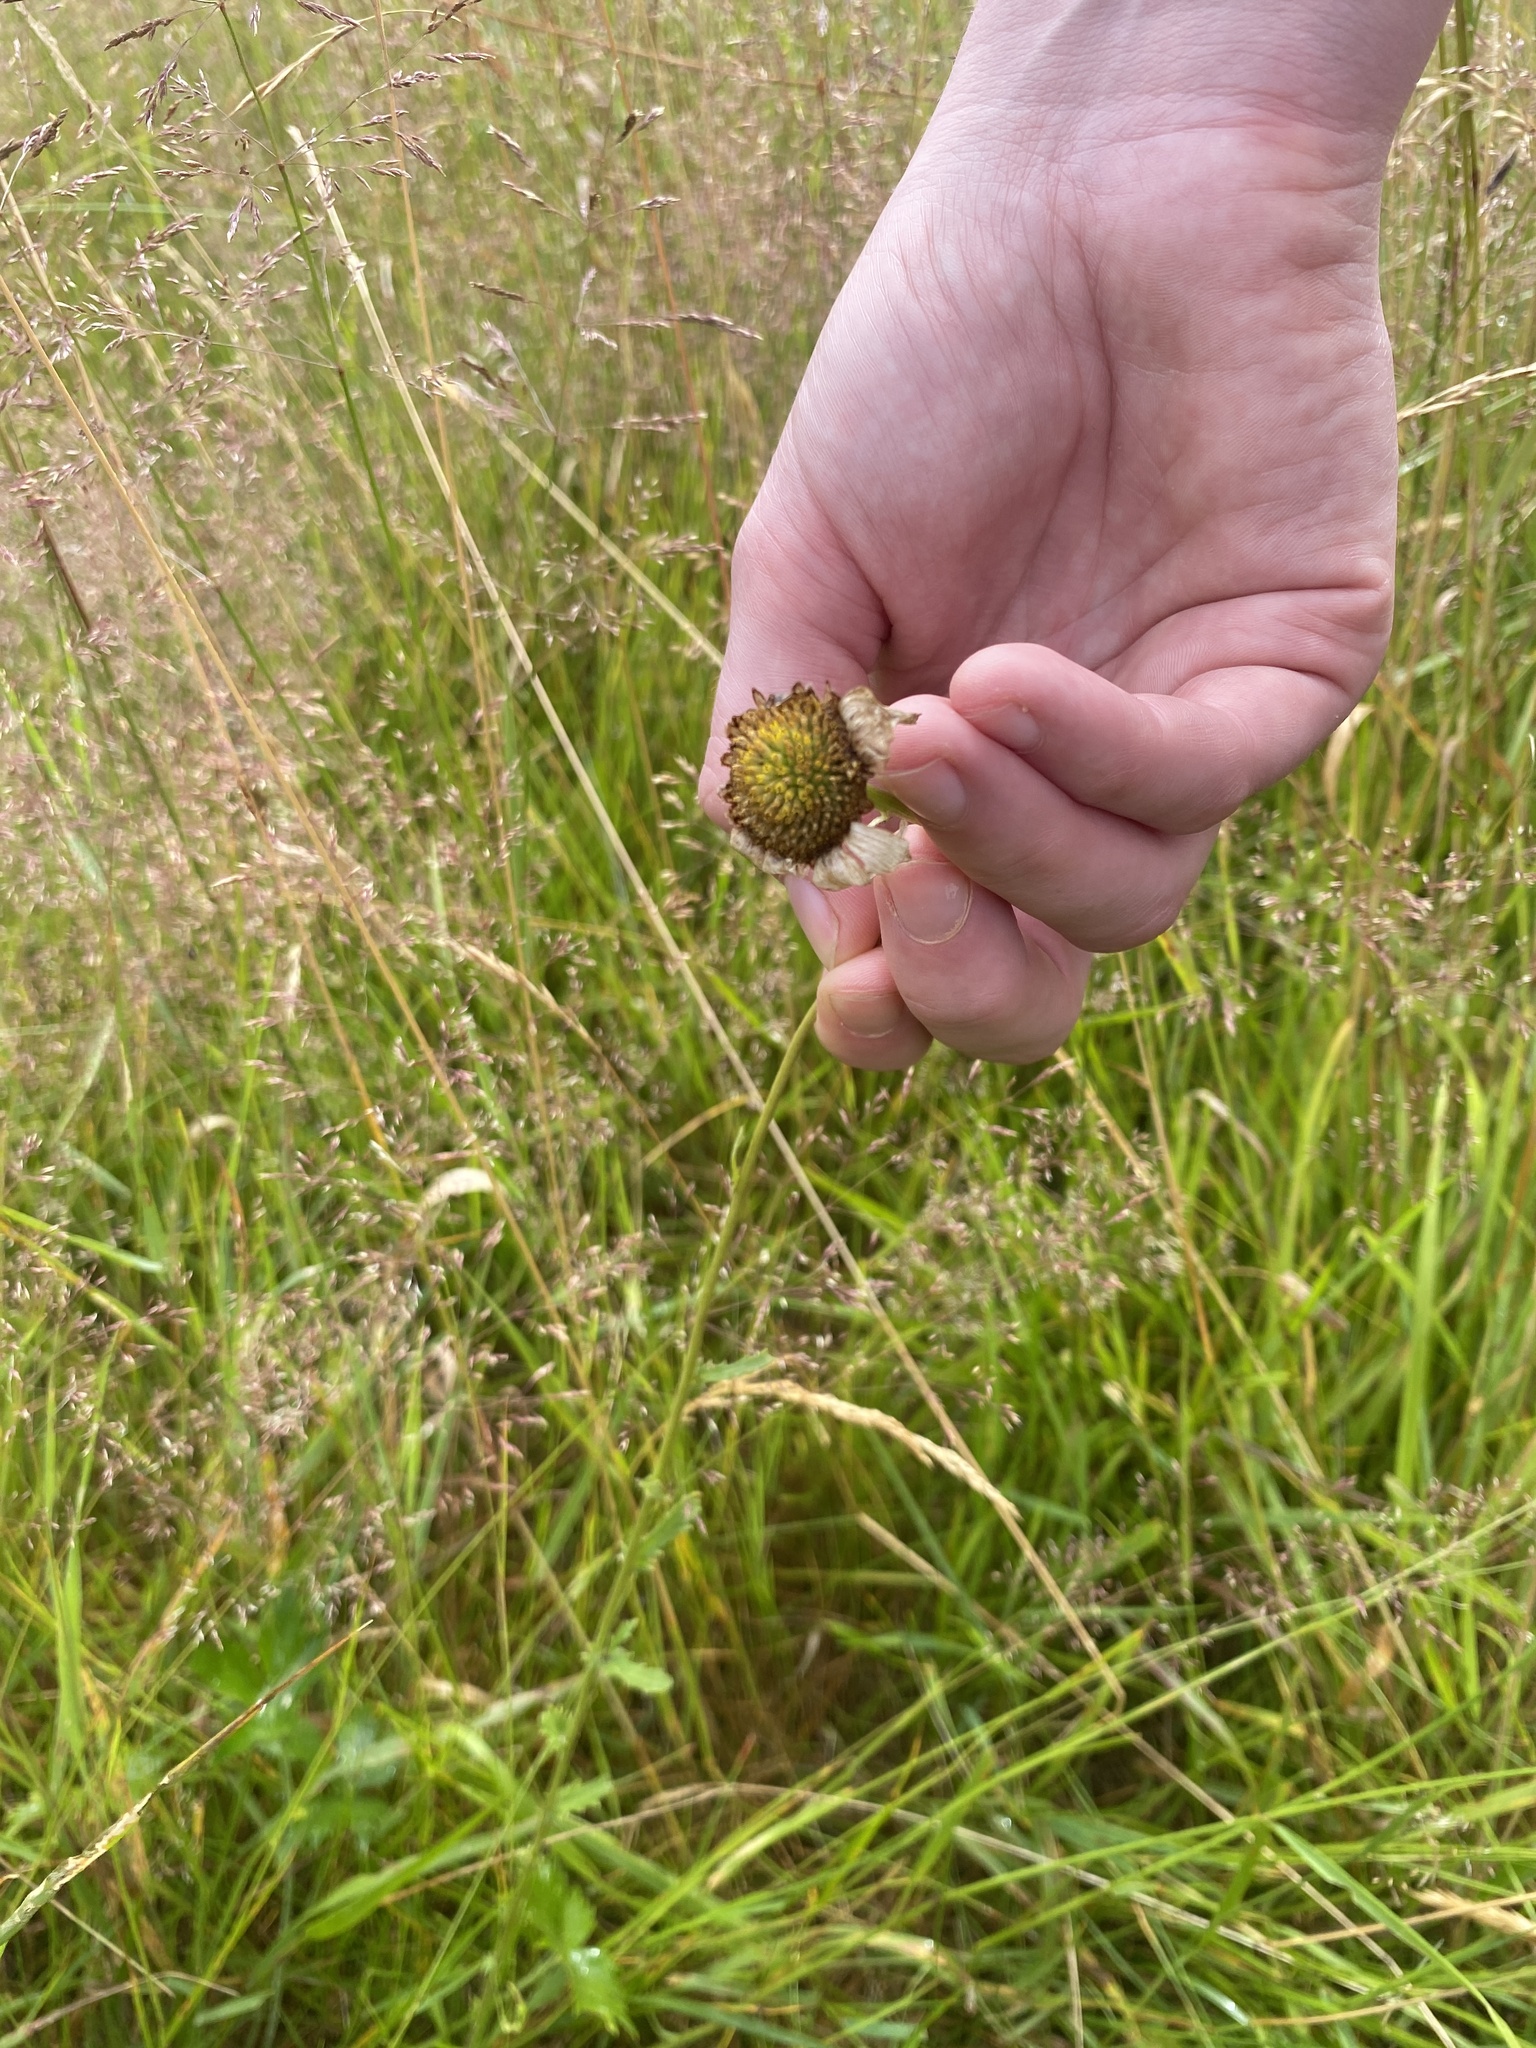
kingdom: Plantae
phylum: Tracheophyta
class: Magnoliopsida
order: Asterales
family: Asteraceae
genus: Leucanthemum
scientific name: Leucanthemum vulgare
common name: Oxeye daisy
